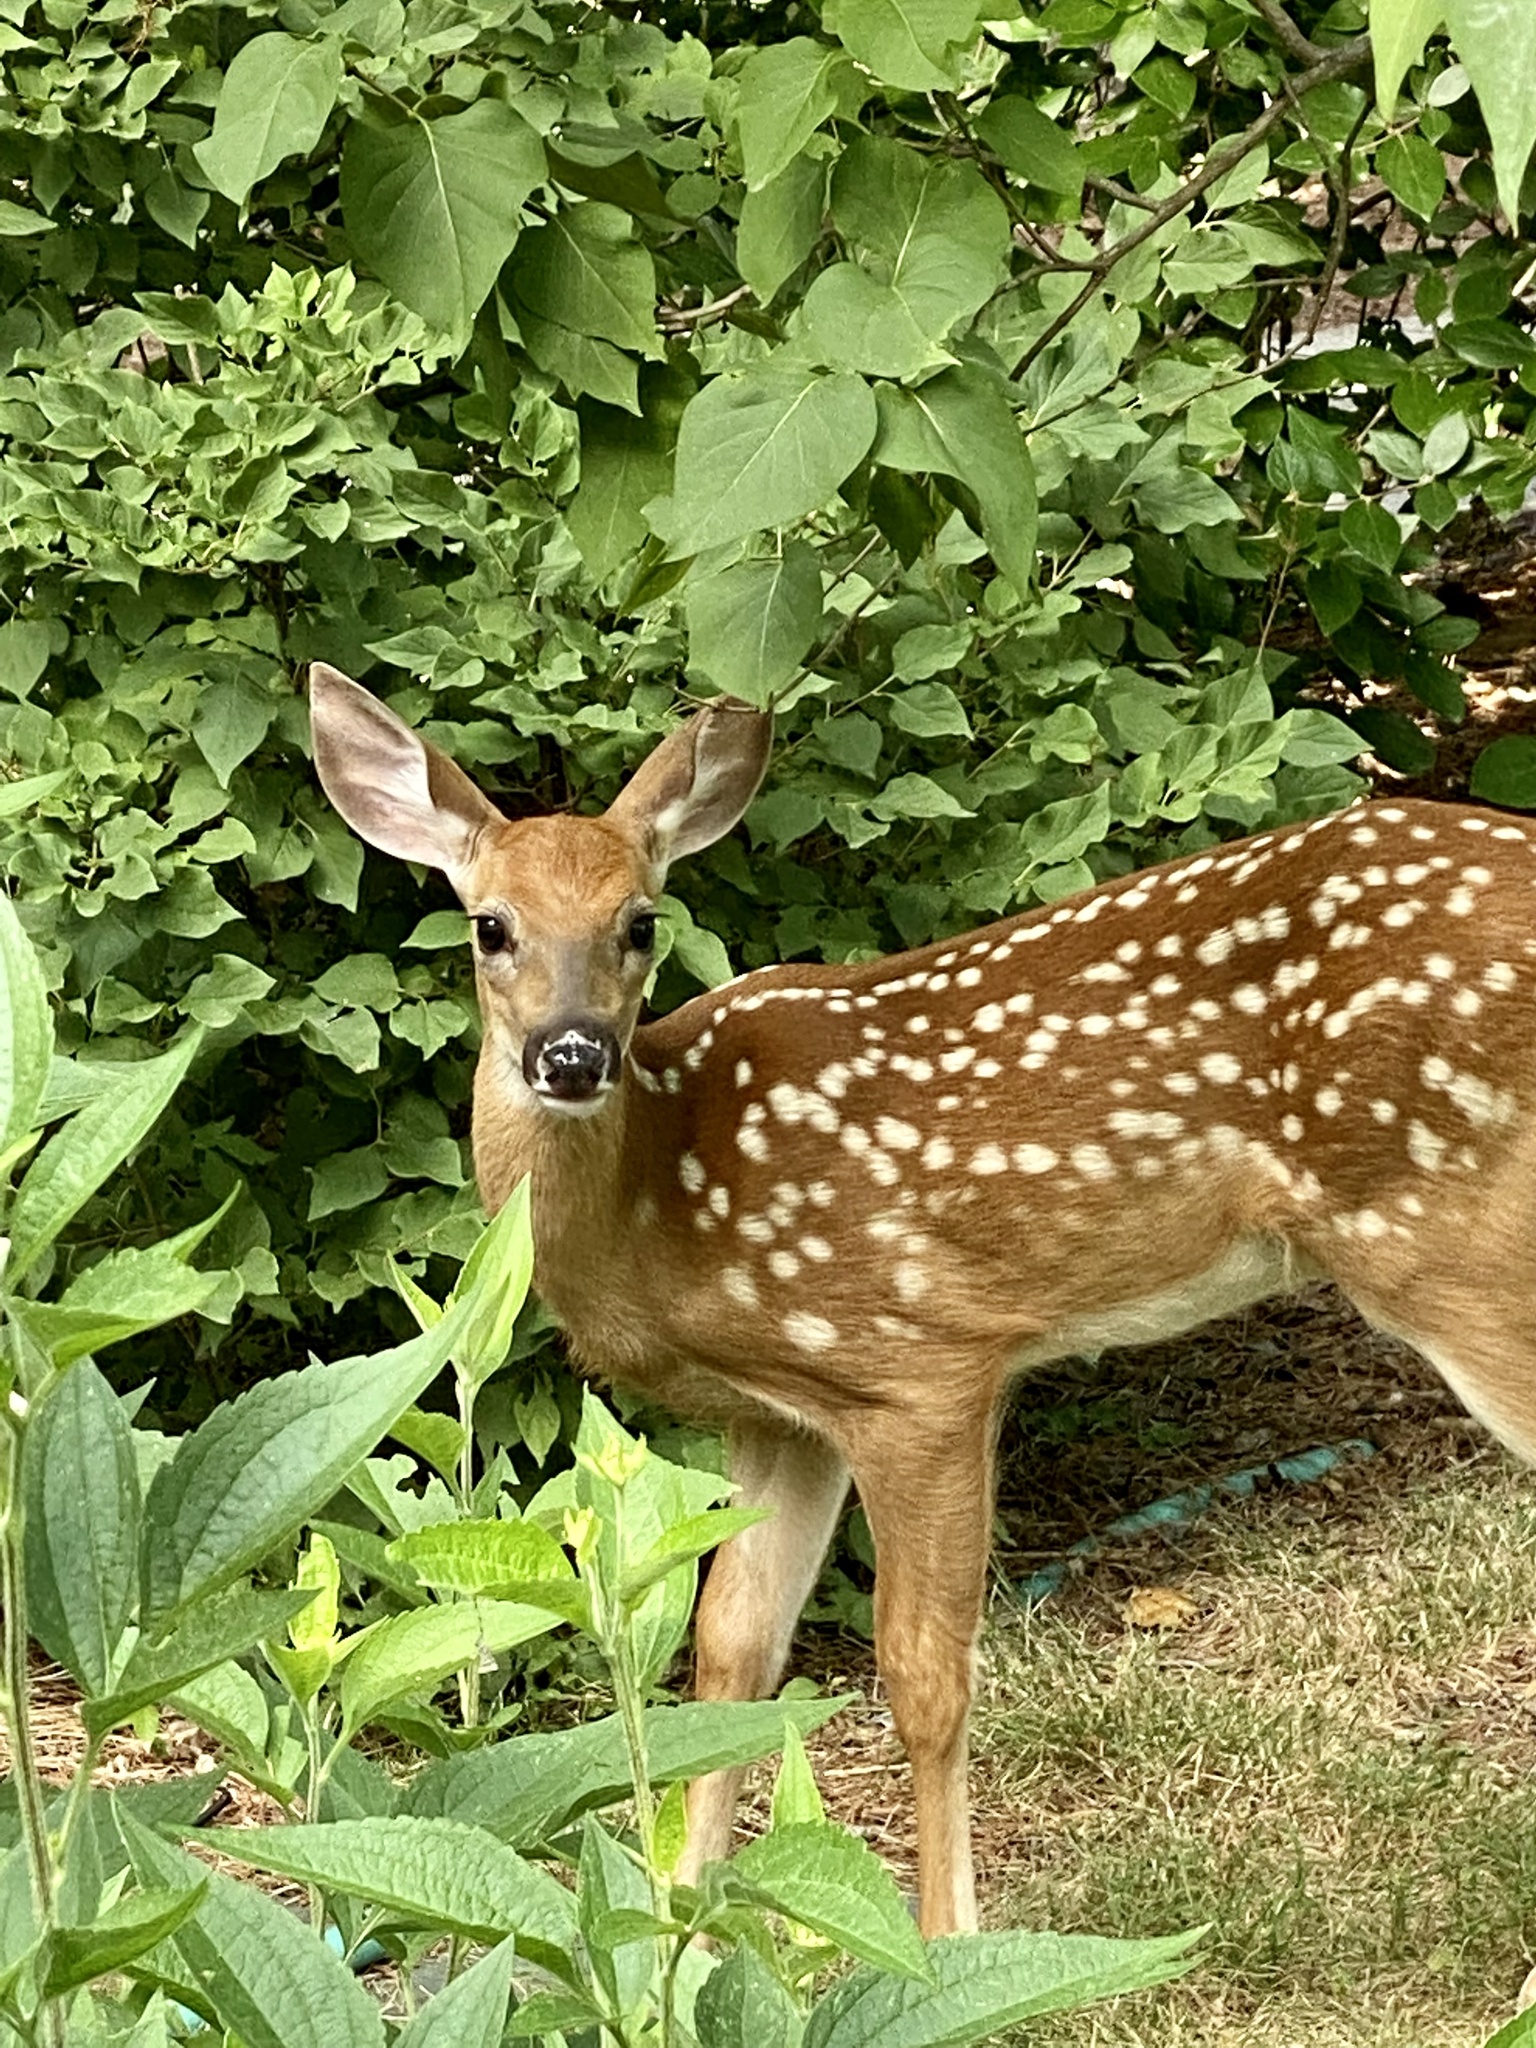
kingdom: Animalia
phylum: Chordata
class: Mammalia
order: Artiodactyla
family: Cervidae
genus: Odocoileus
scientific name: Odocoileus virginianus
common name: White-tailed deer
